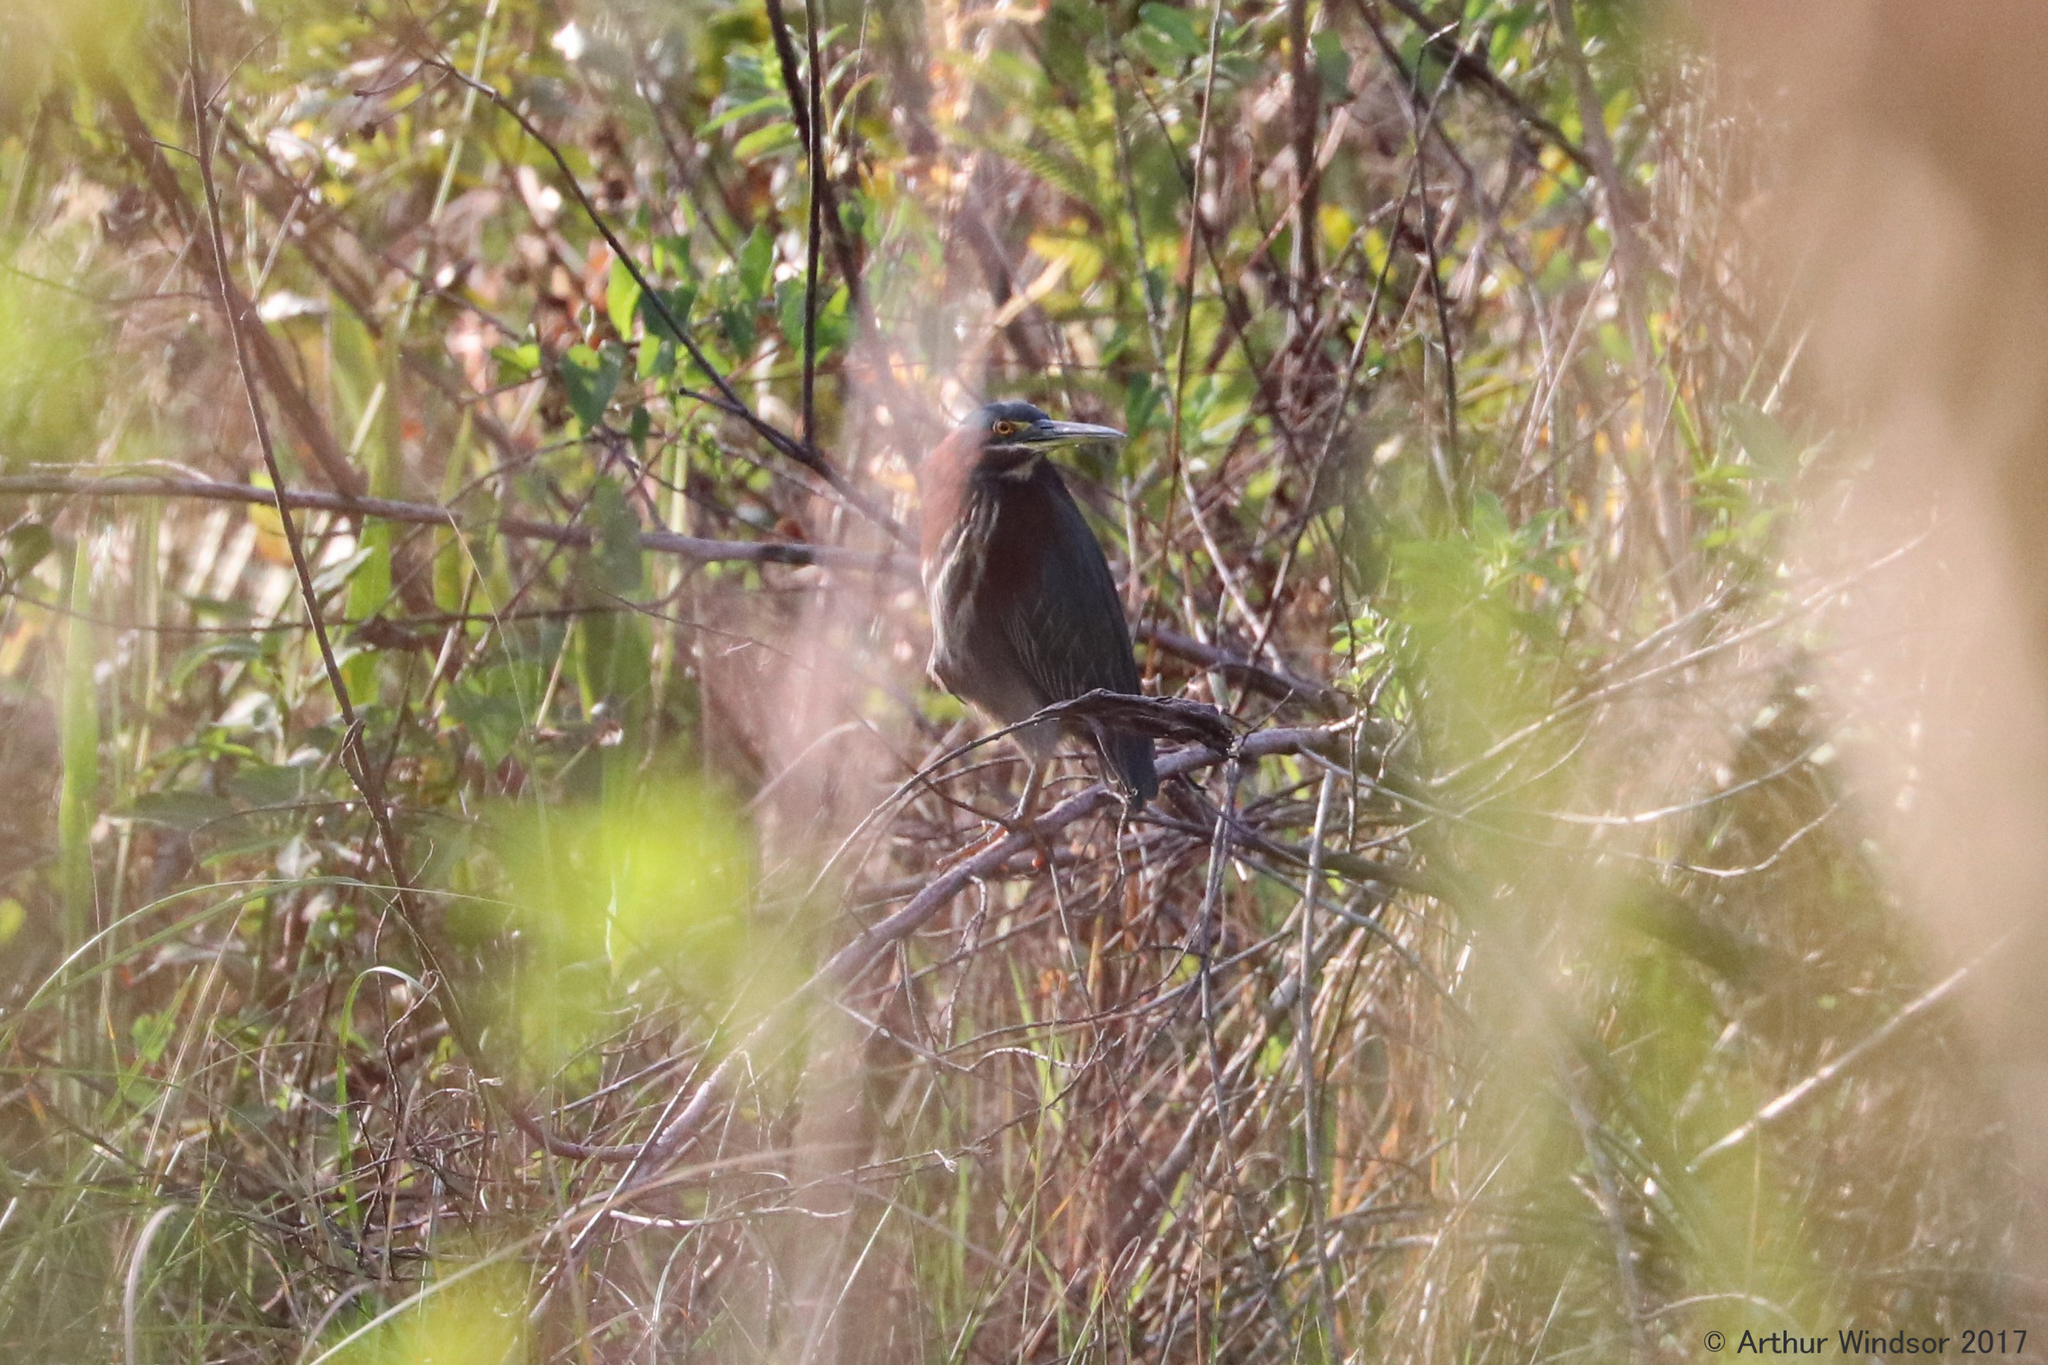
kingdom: Animalia
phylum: Chordata
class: Aves
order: Pelecaniformes
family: Ardeidae
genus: Butorides
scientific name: Butorides virescens
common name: Green heron
